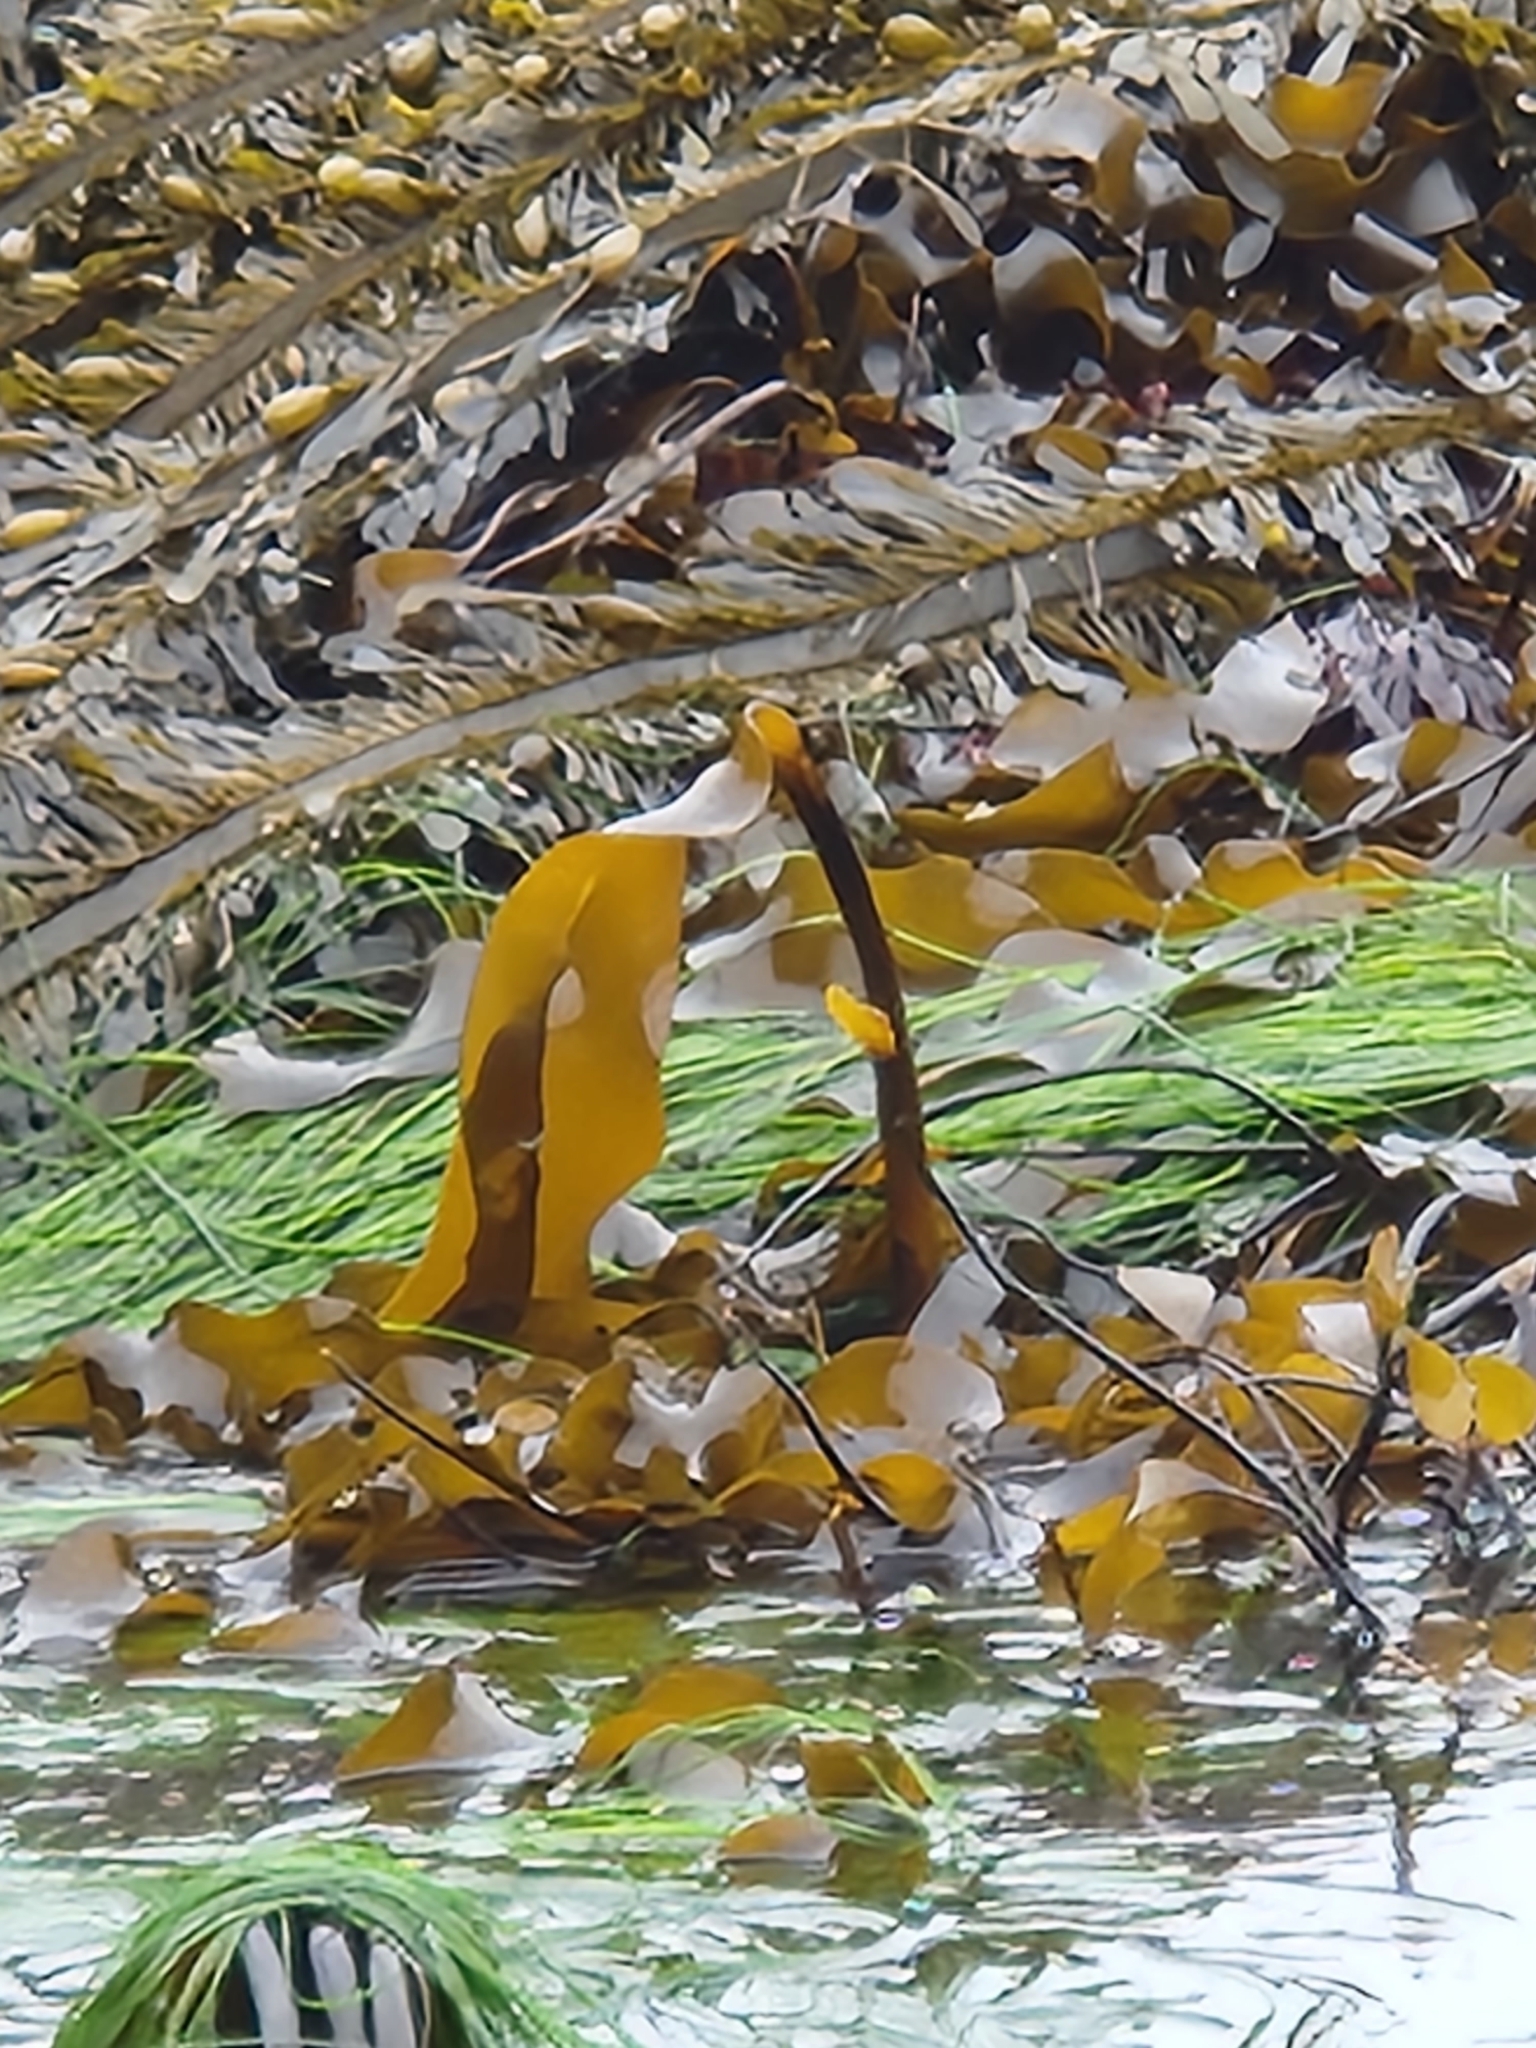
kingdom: Chromista
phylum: Ochrophyta
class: Phaeophyceae
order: Laminariales
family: Lessoniaceae
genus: Egregia
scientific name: Egregia menziesii
